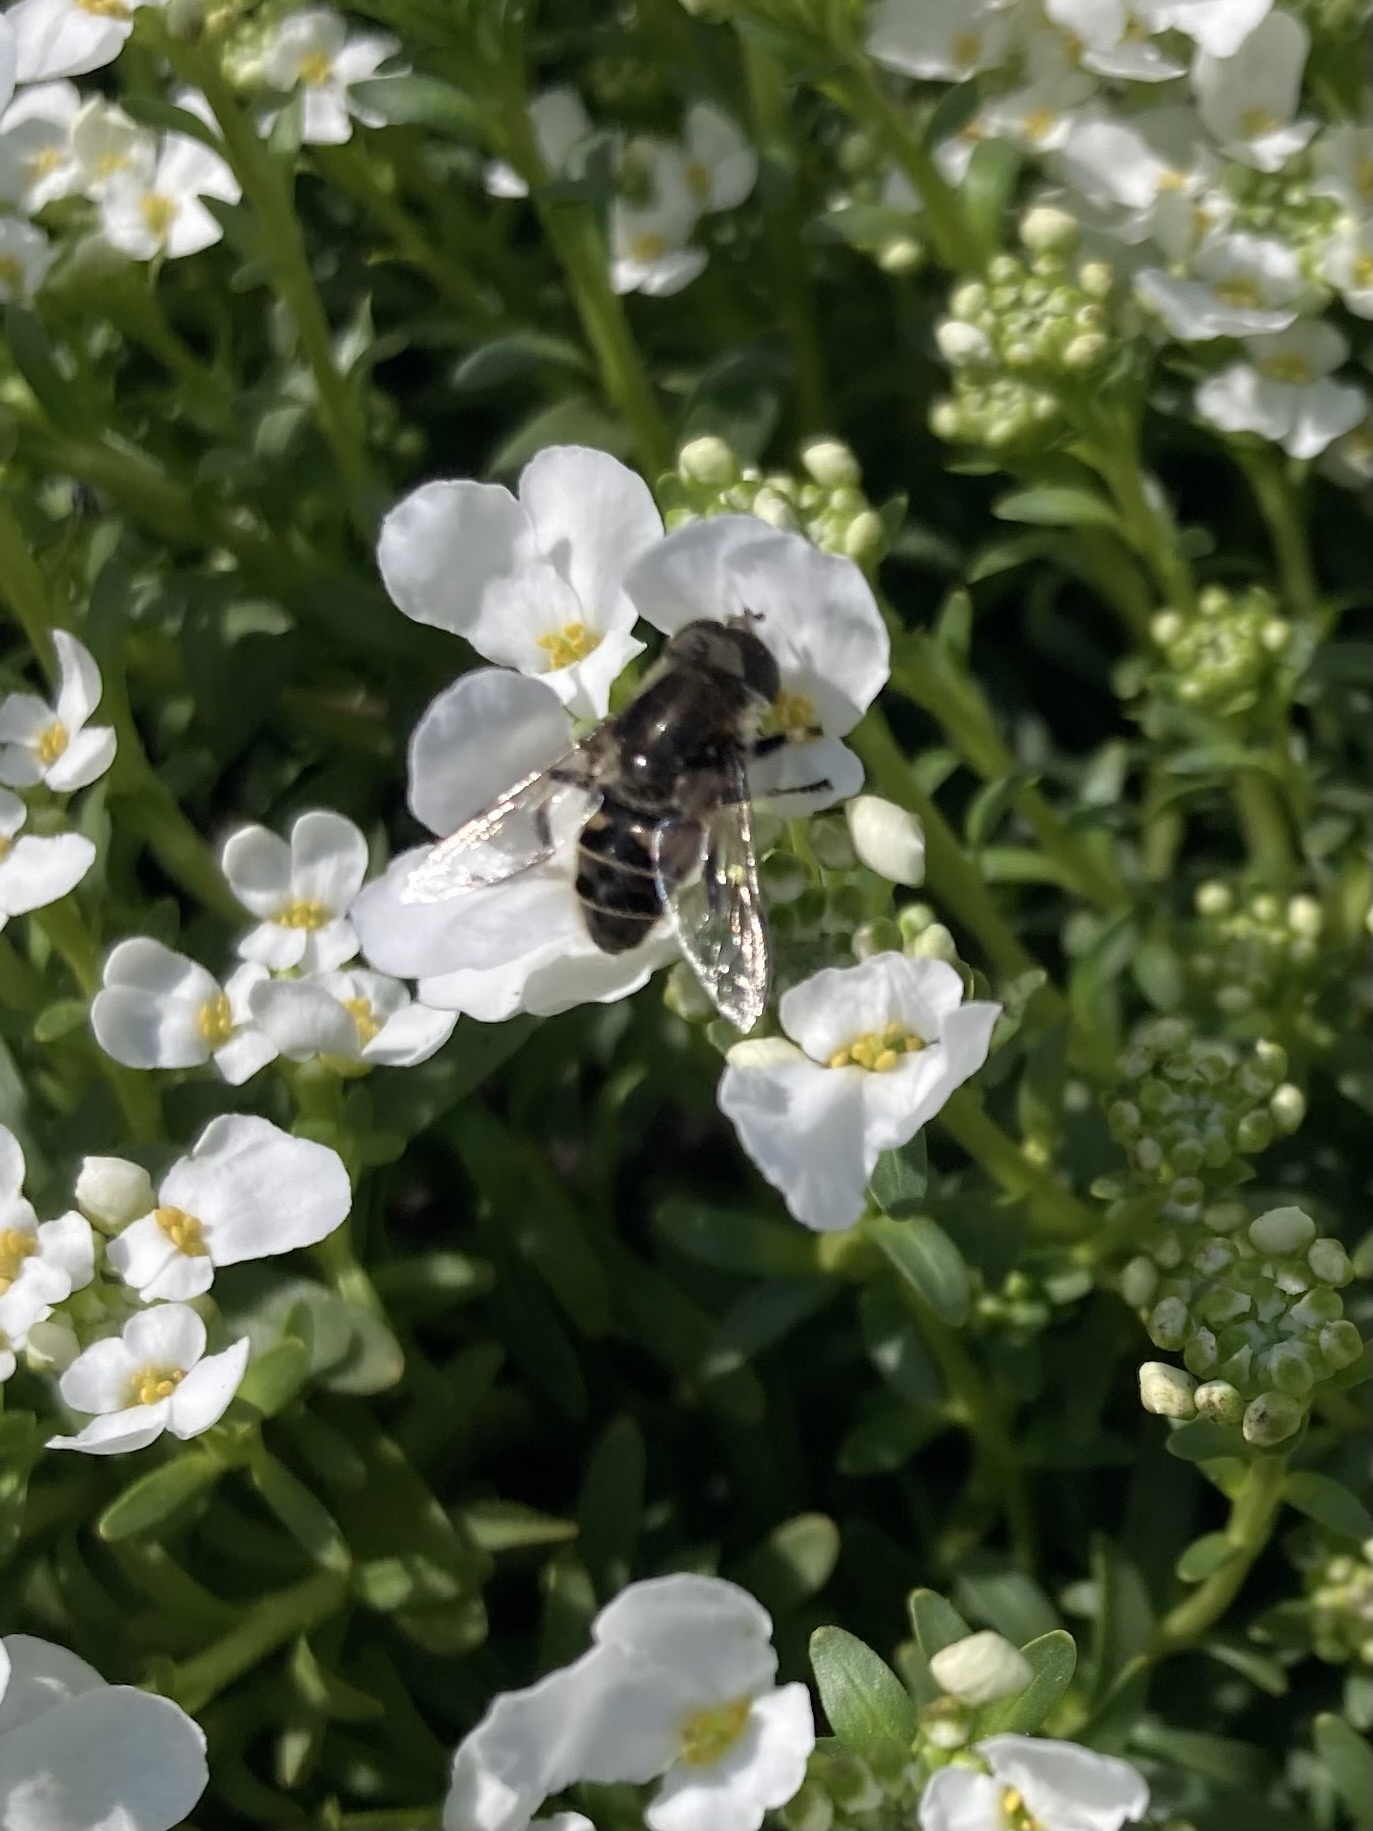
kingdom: Animalia
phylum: Arthropoda
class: Insecta
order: Diptera
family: Syrphidae
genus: Eristalis
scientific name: Eristalis dimidiata
